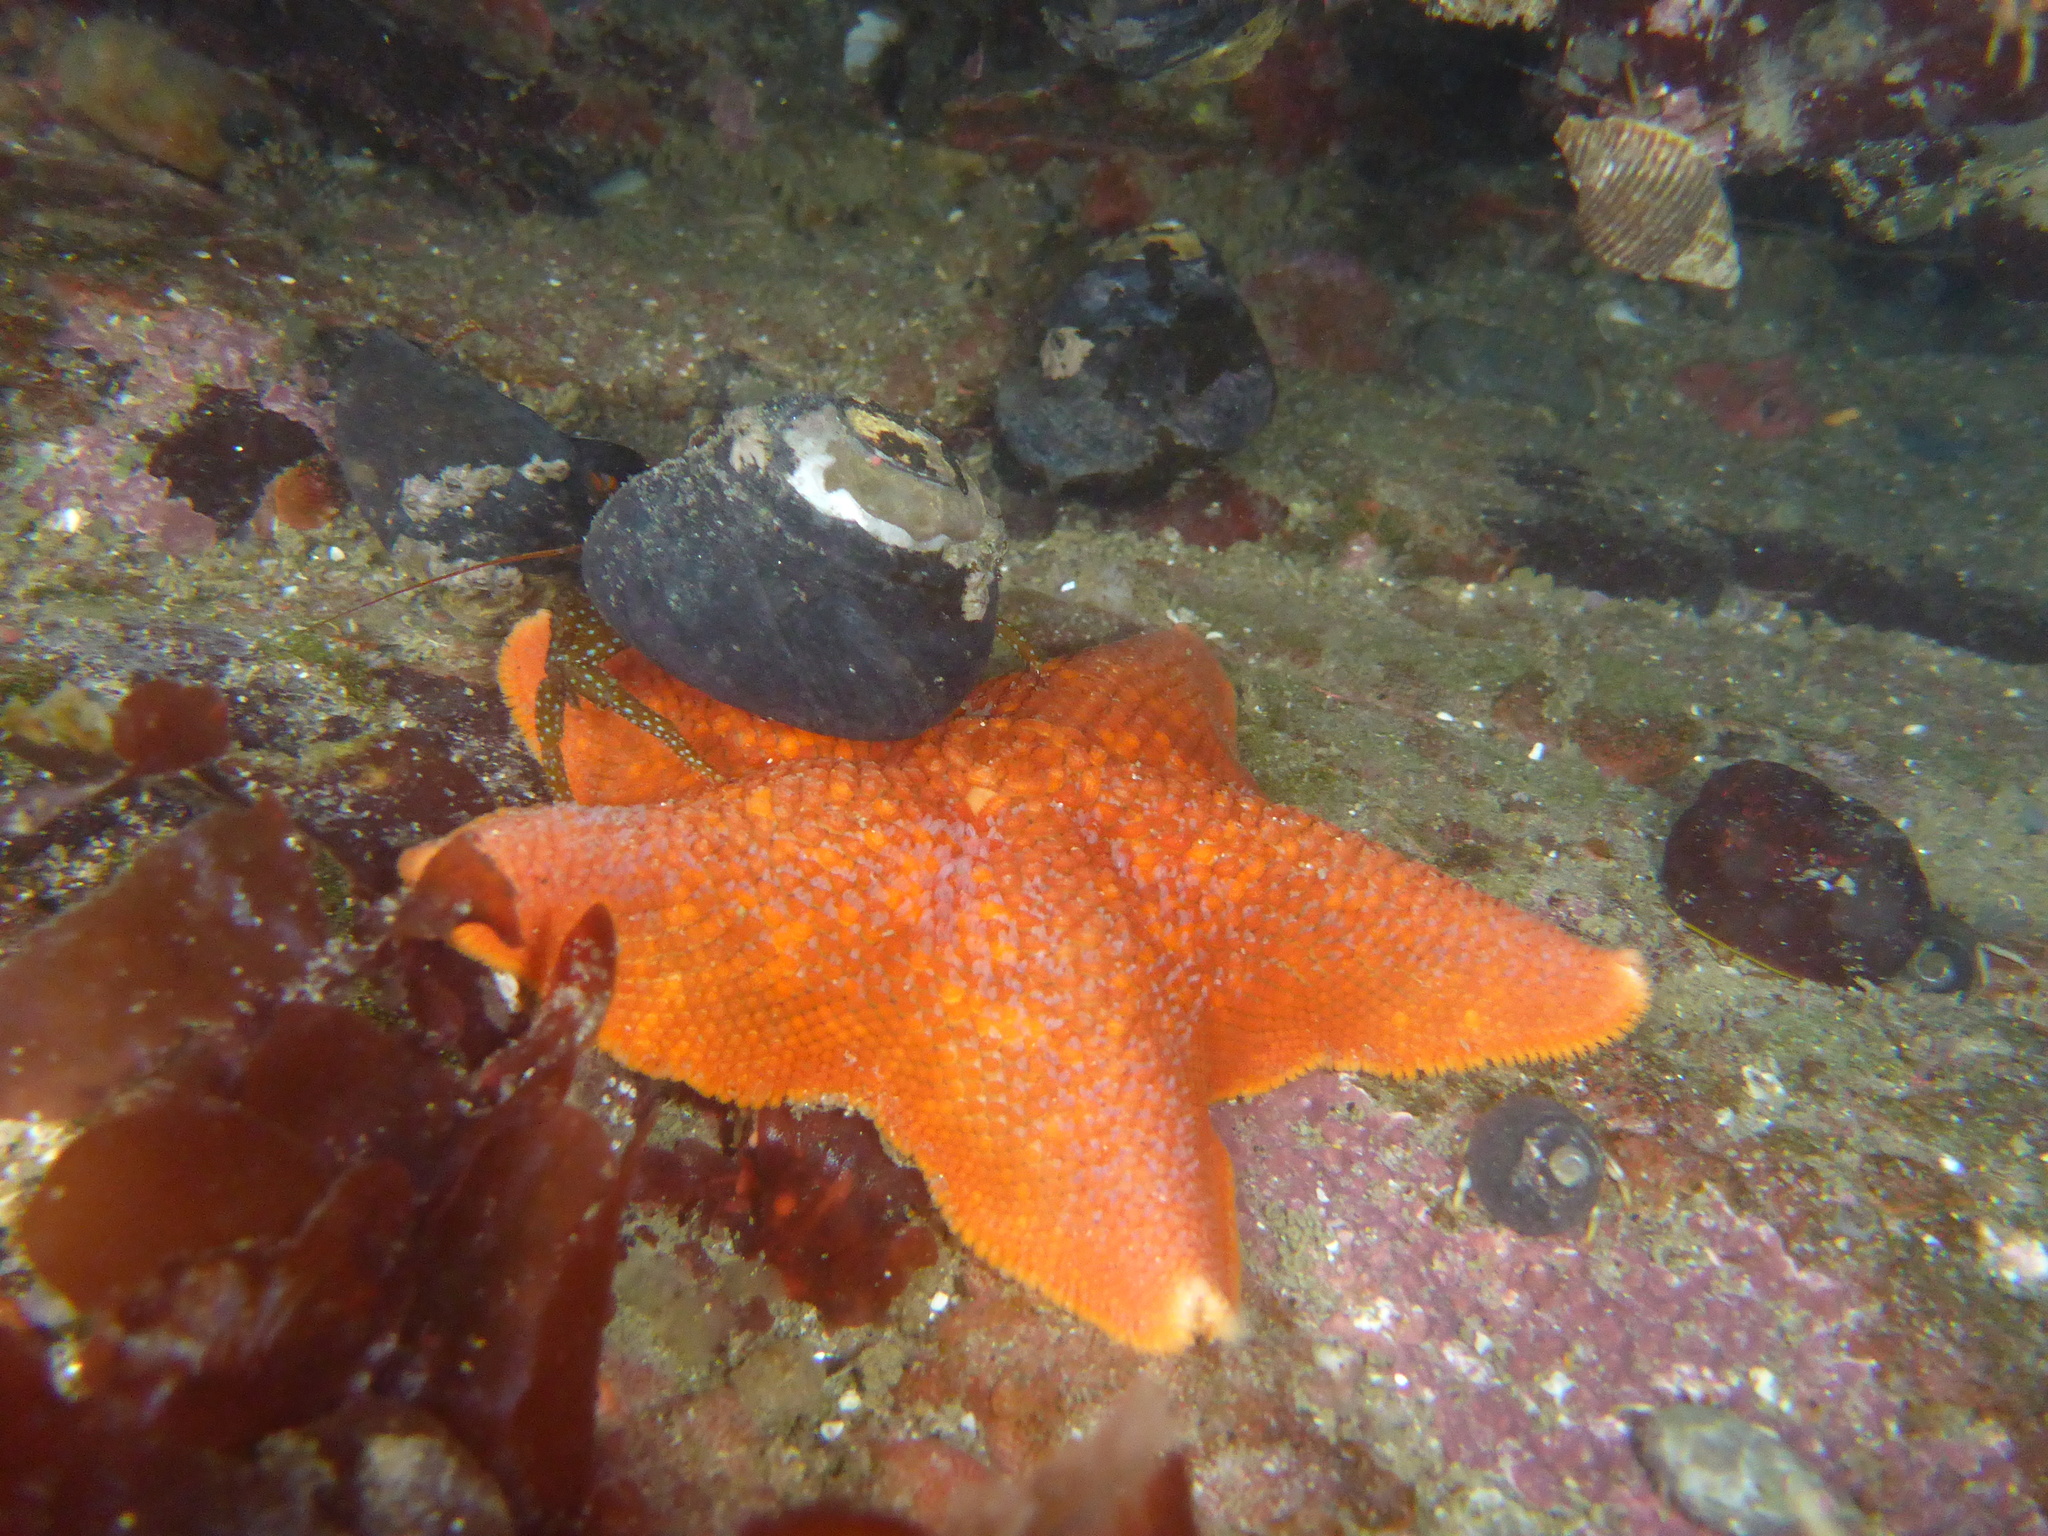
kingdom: Animalia
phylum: Echinodermata
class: Asteroidea
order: Valvatida
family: Asterinidae
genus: Patiria
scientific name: Patiria miniata
